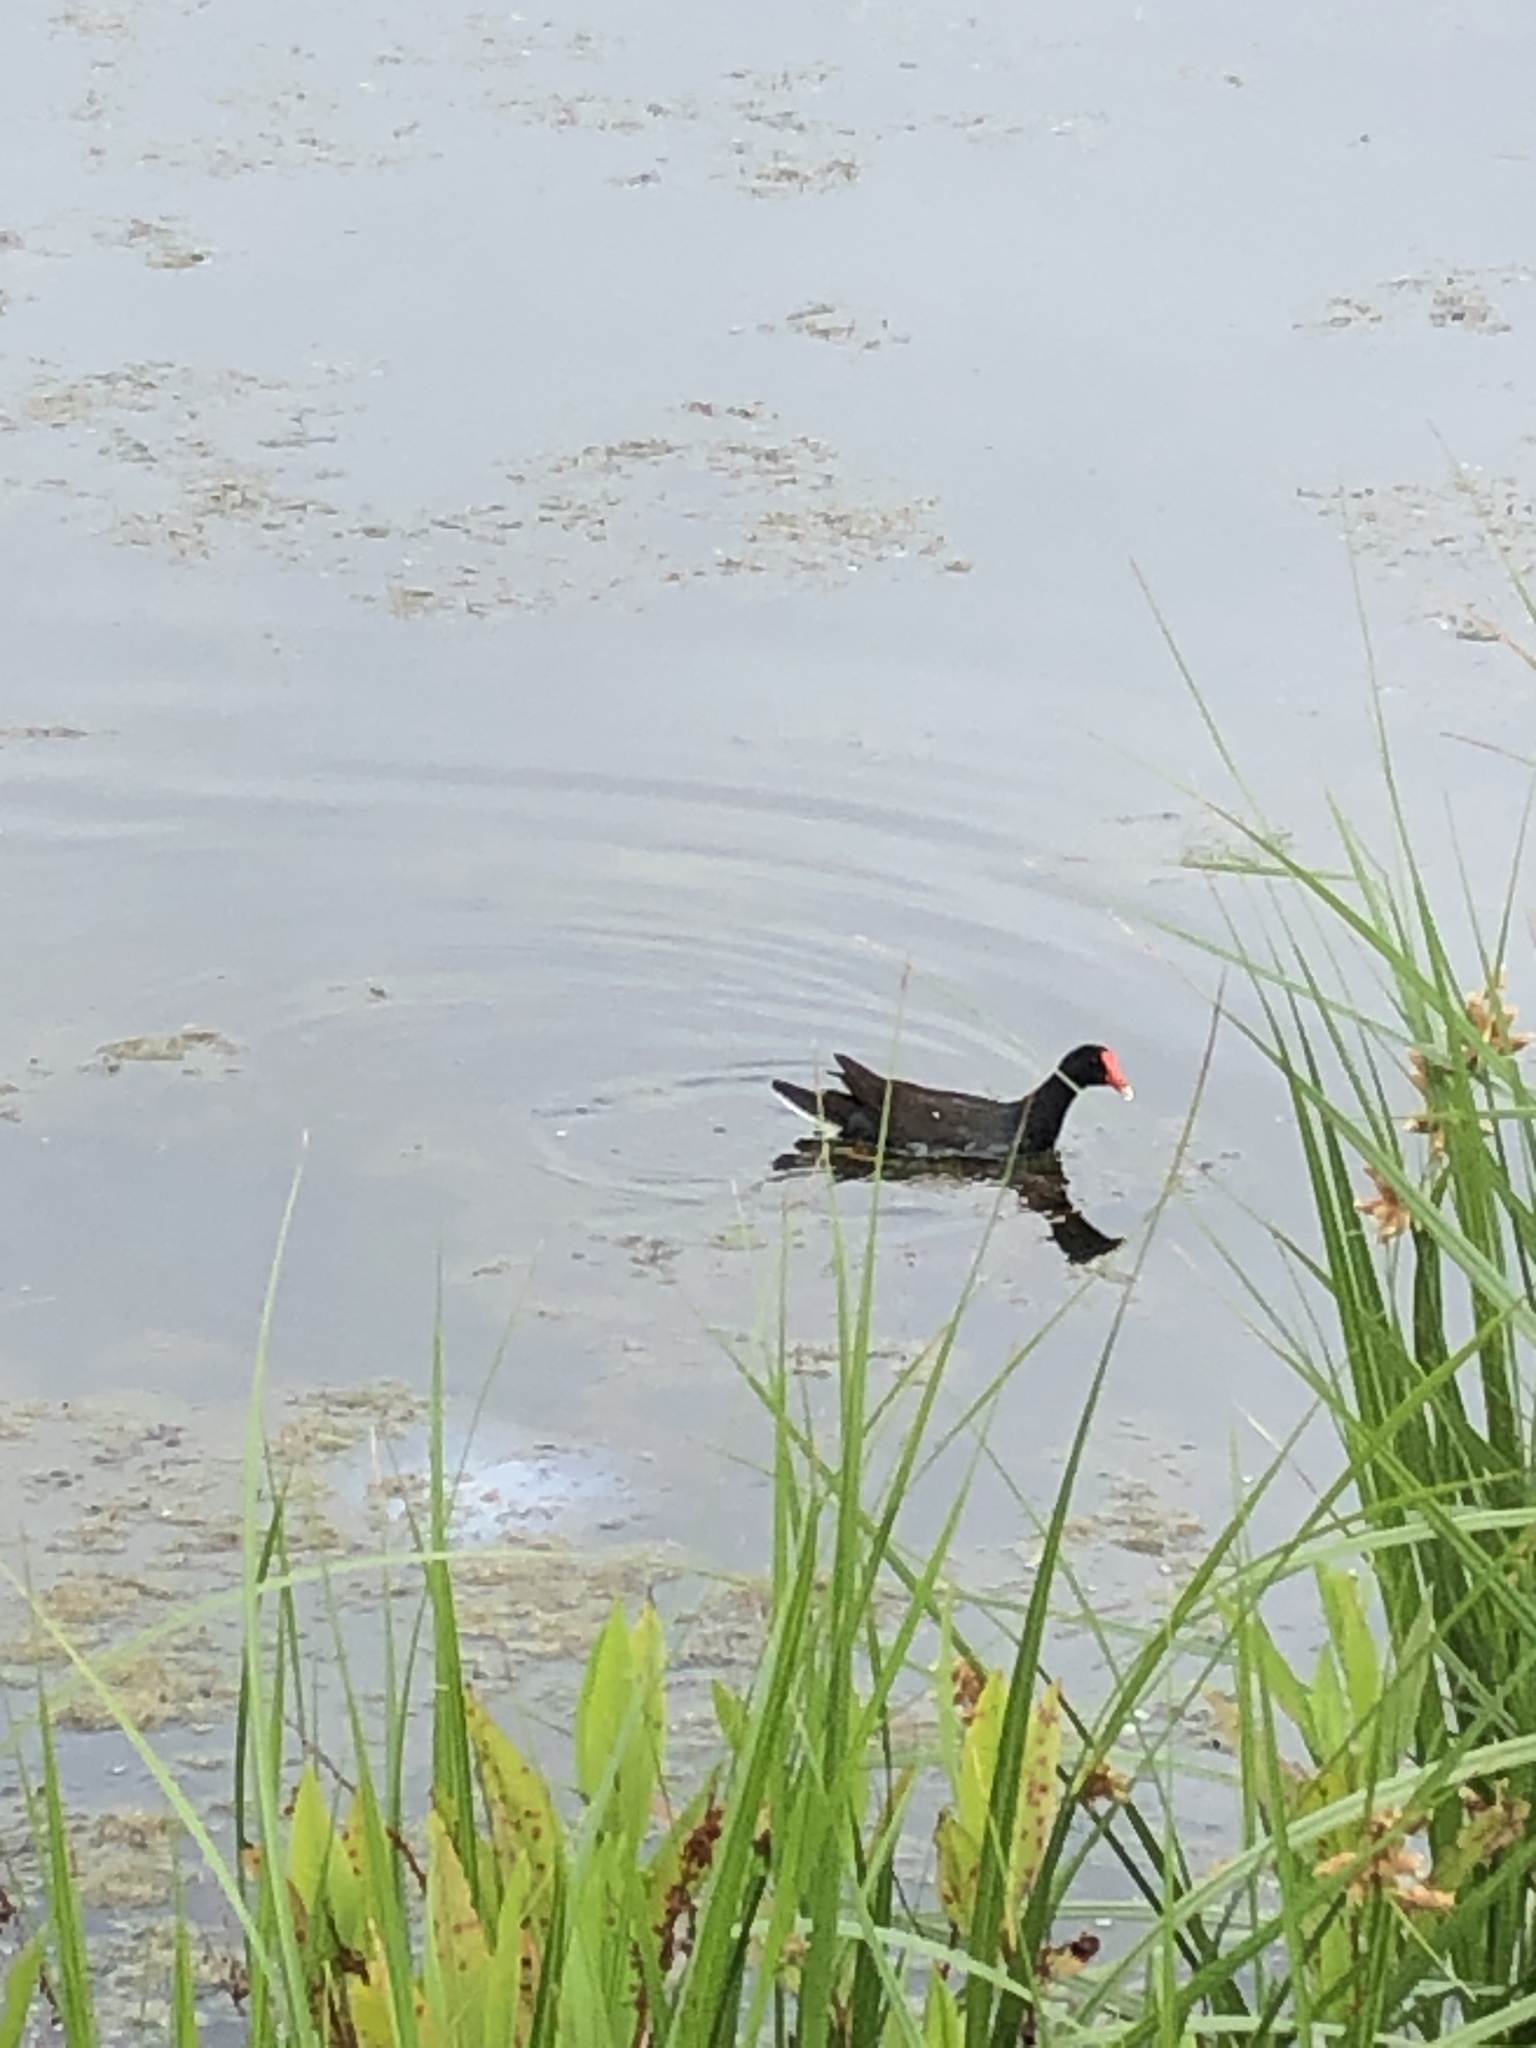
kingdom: Animalia
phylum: Chordata
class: Aves
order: Gruiformes
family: Rallidae
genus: Gallinula
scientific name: Gallinula chloropus
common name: Common moorhen
